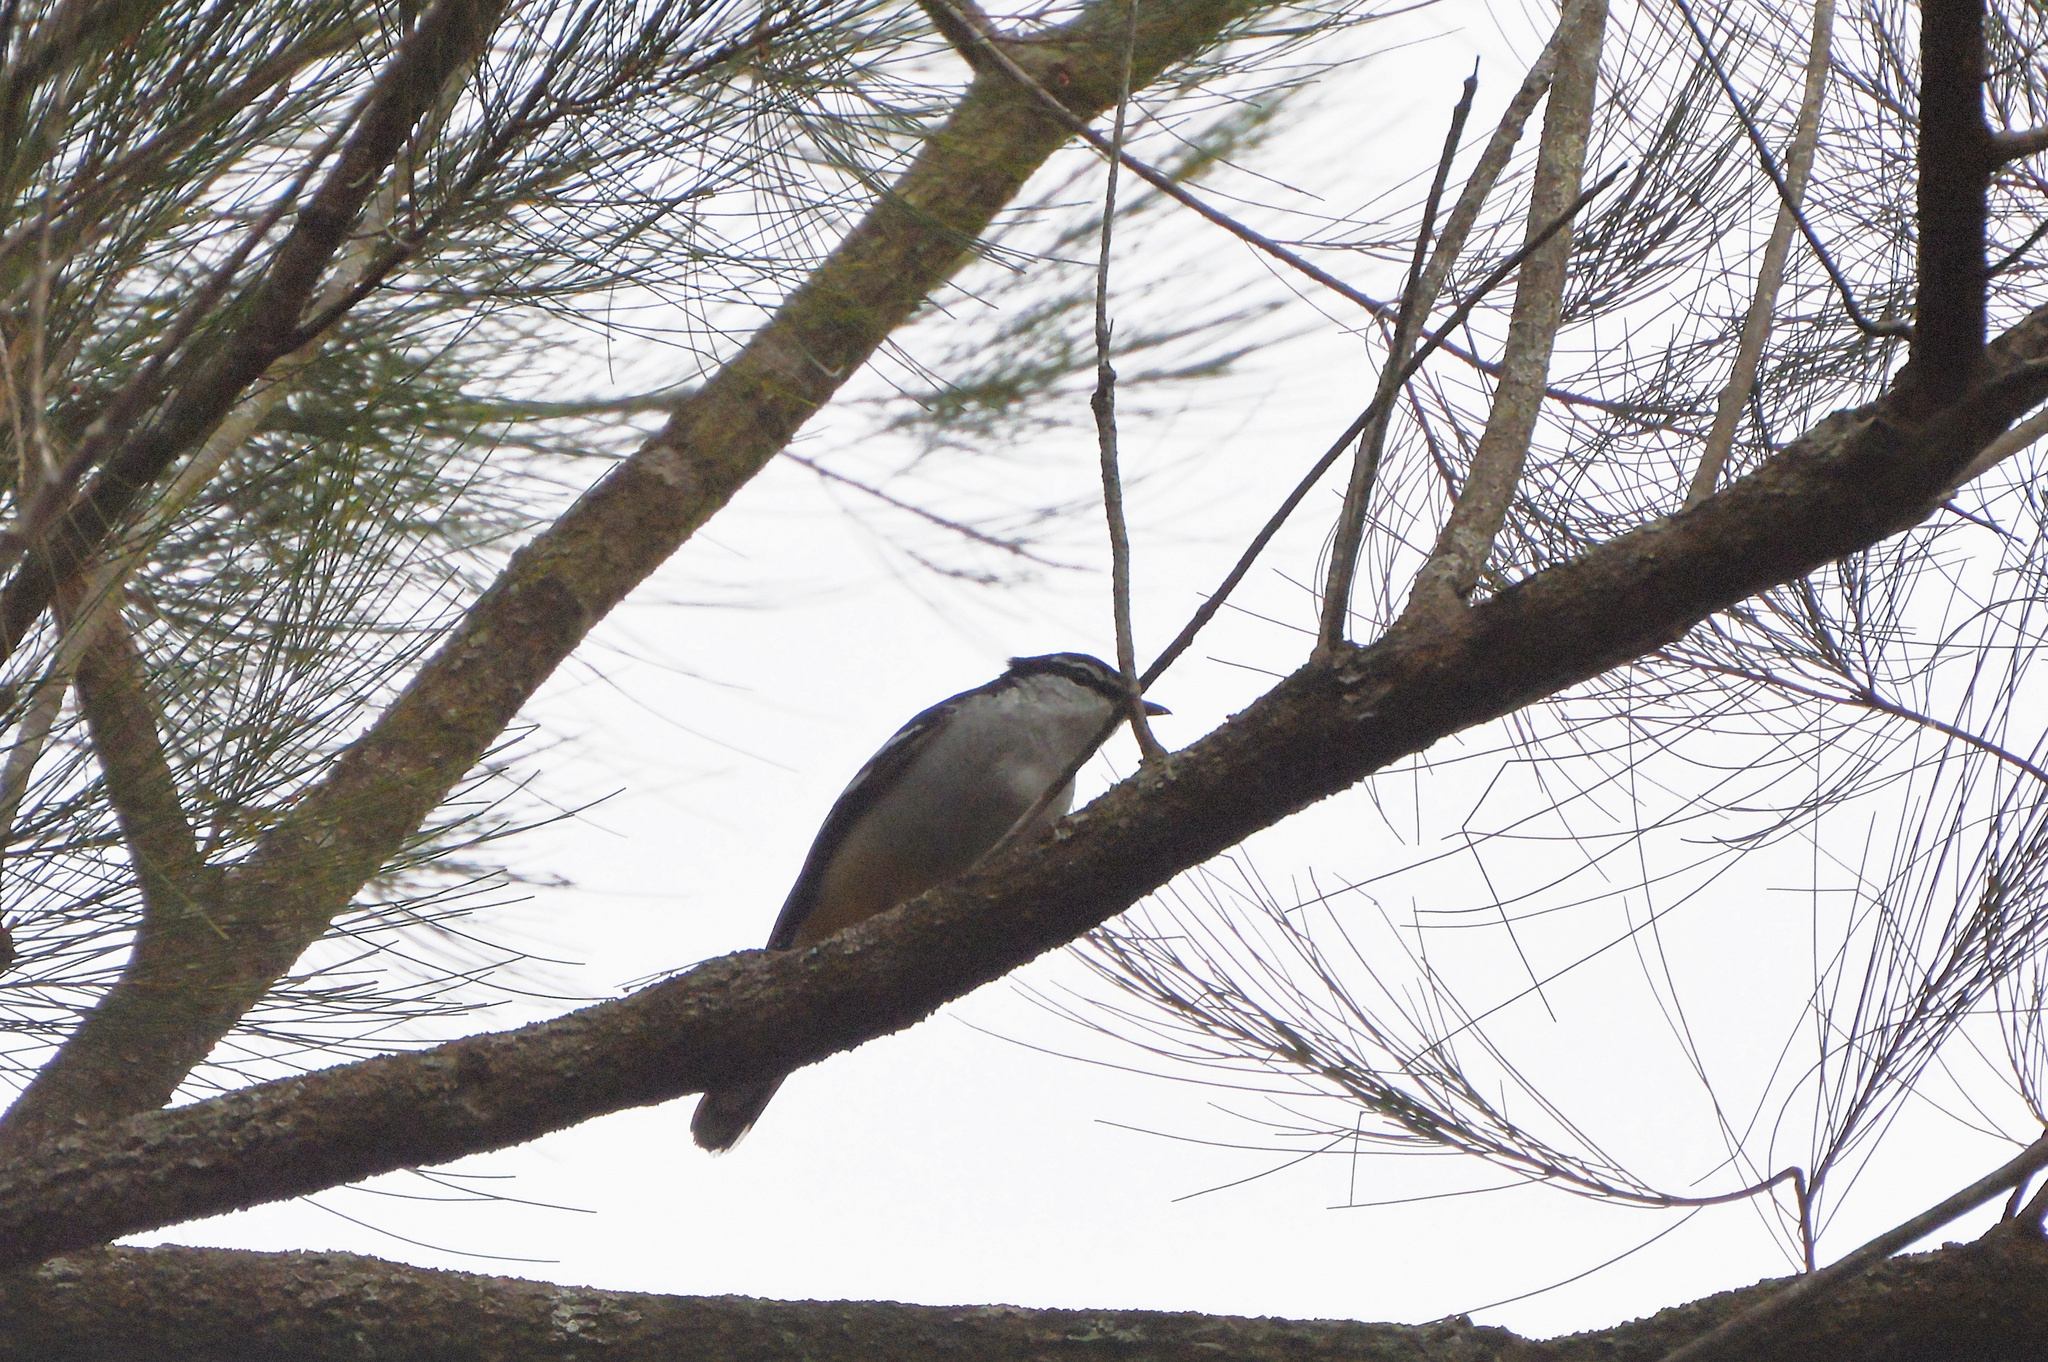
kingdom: Animalia
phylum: Chordata
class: Aves
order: Passeriformes
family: Campephagidae
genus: Lalage
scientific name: Lalage leucomela
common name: Varied triller
